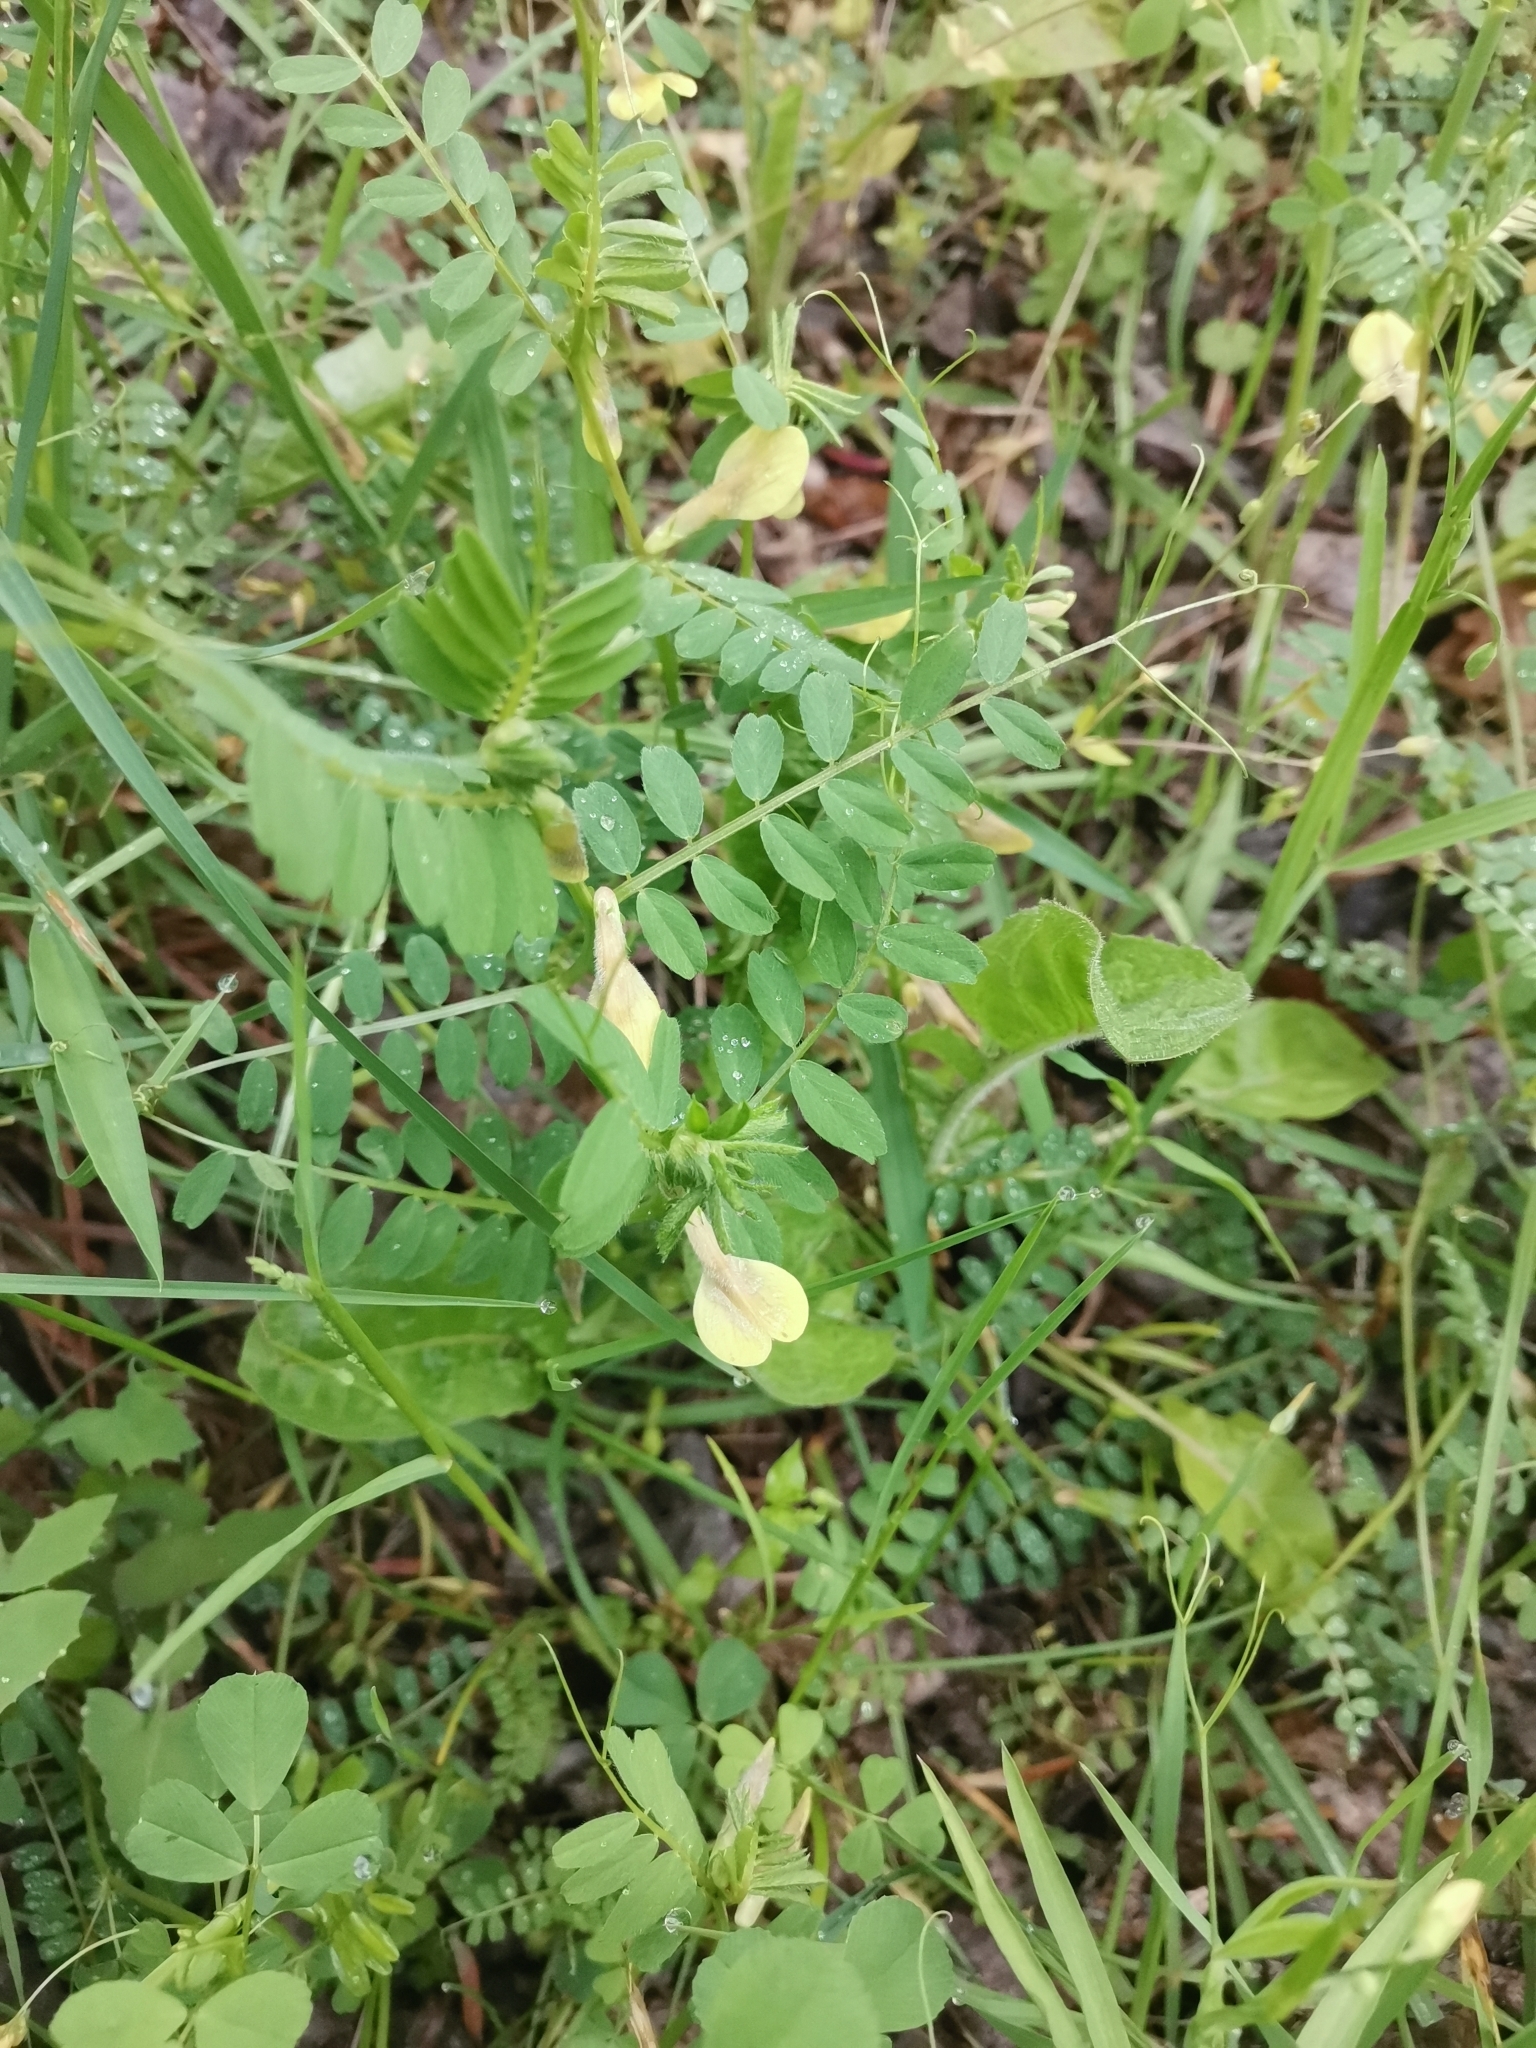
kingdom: Plantae
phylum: Tracheophyta
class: Magnoliopsida
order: Fabales
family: Fabaceae
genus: Vicia
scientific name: Vicia hybrida
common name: Hairy yellow vetch
